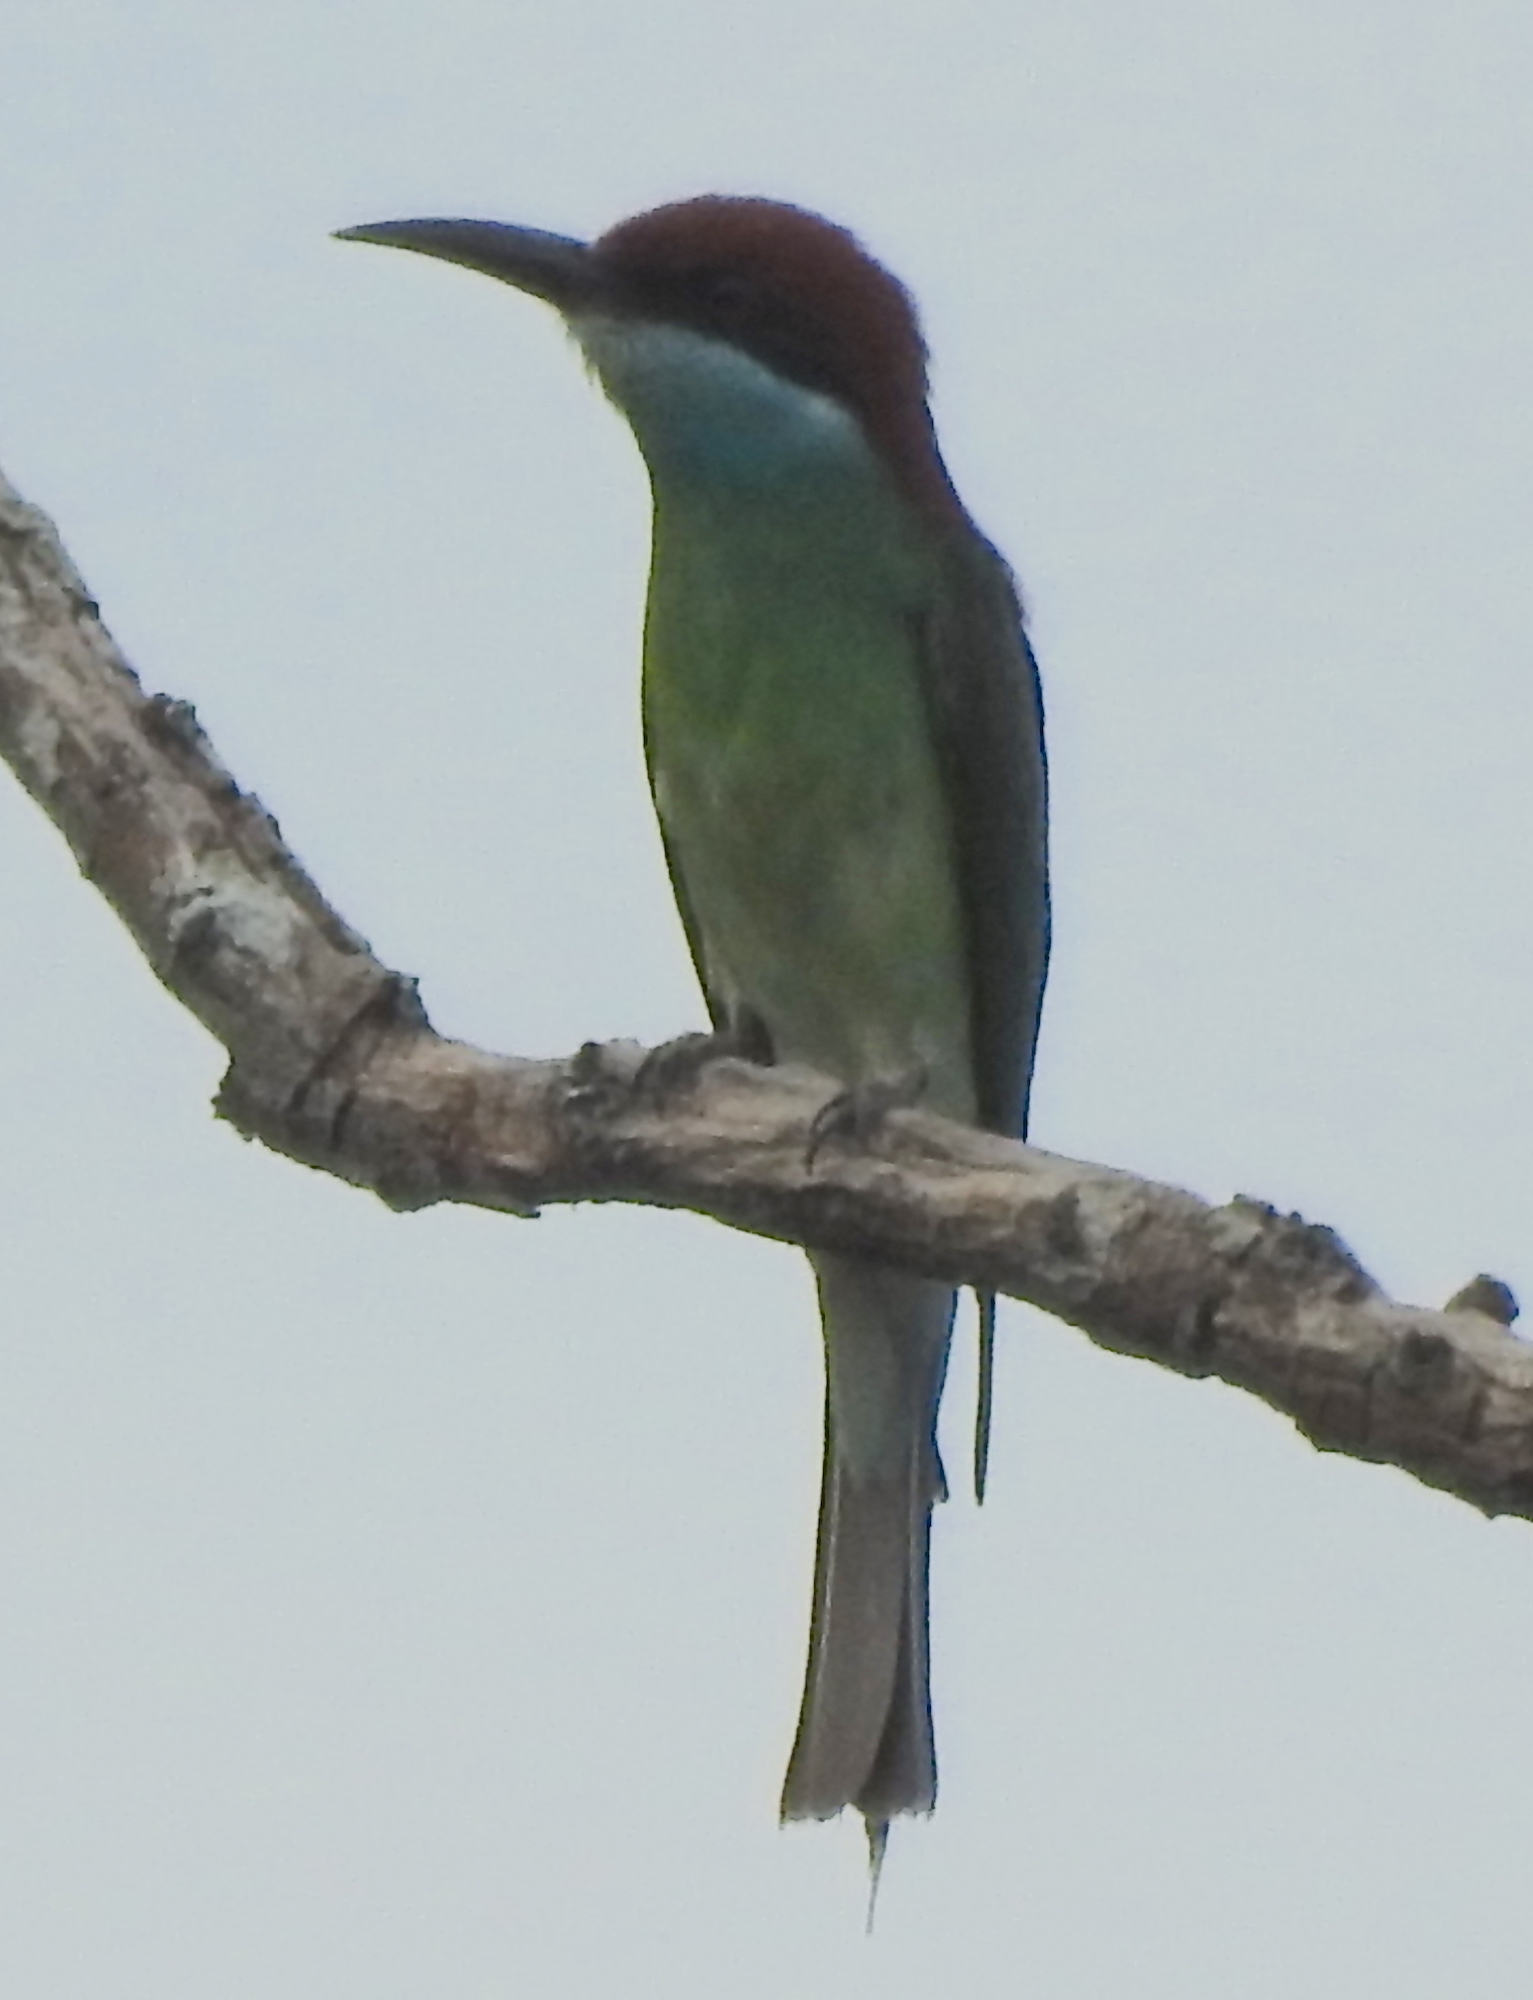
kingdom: Animalia
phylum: Chordata
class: Aves
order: Coraciiformes
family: Meropidae
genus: Merops
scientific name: Merops viridis
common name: Blue-throated bee-eater
